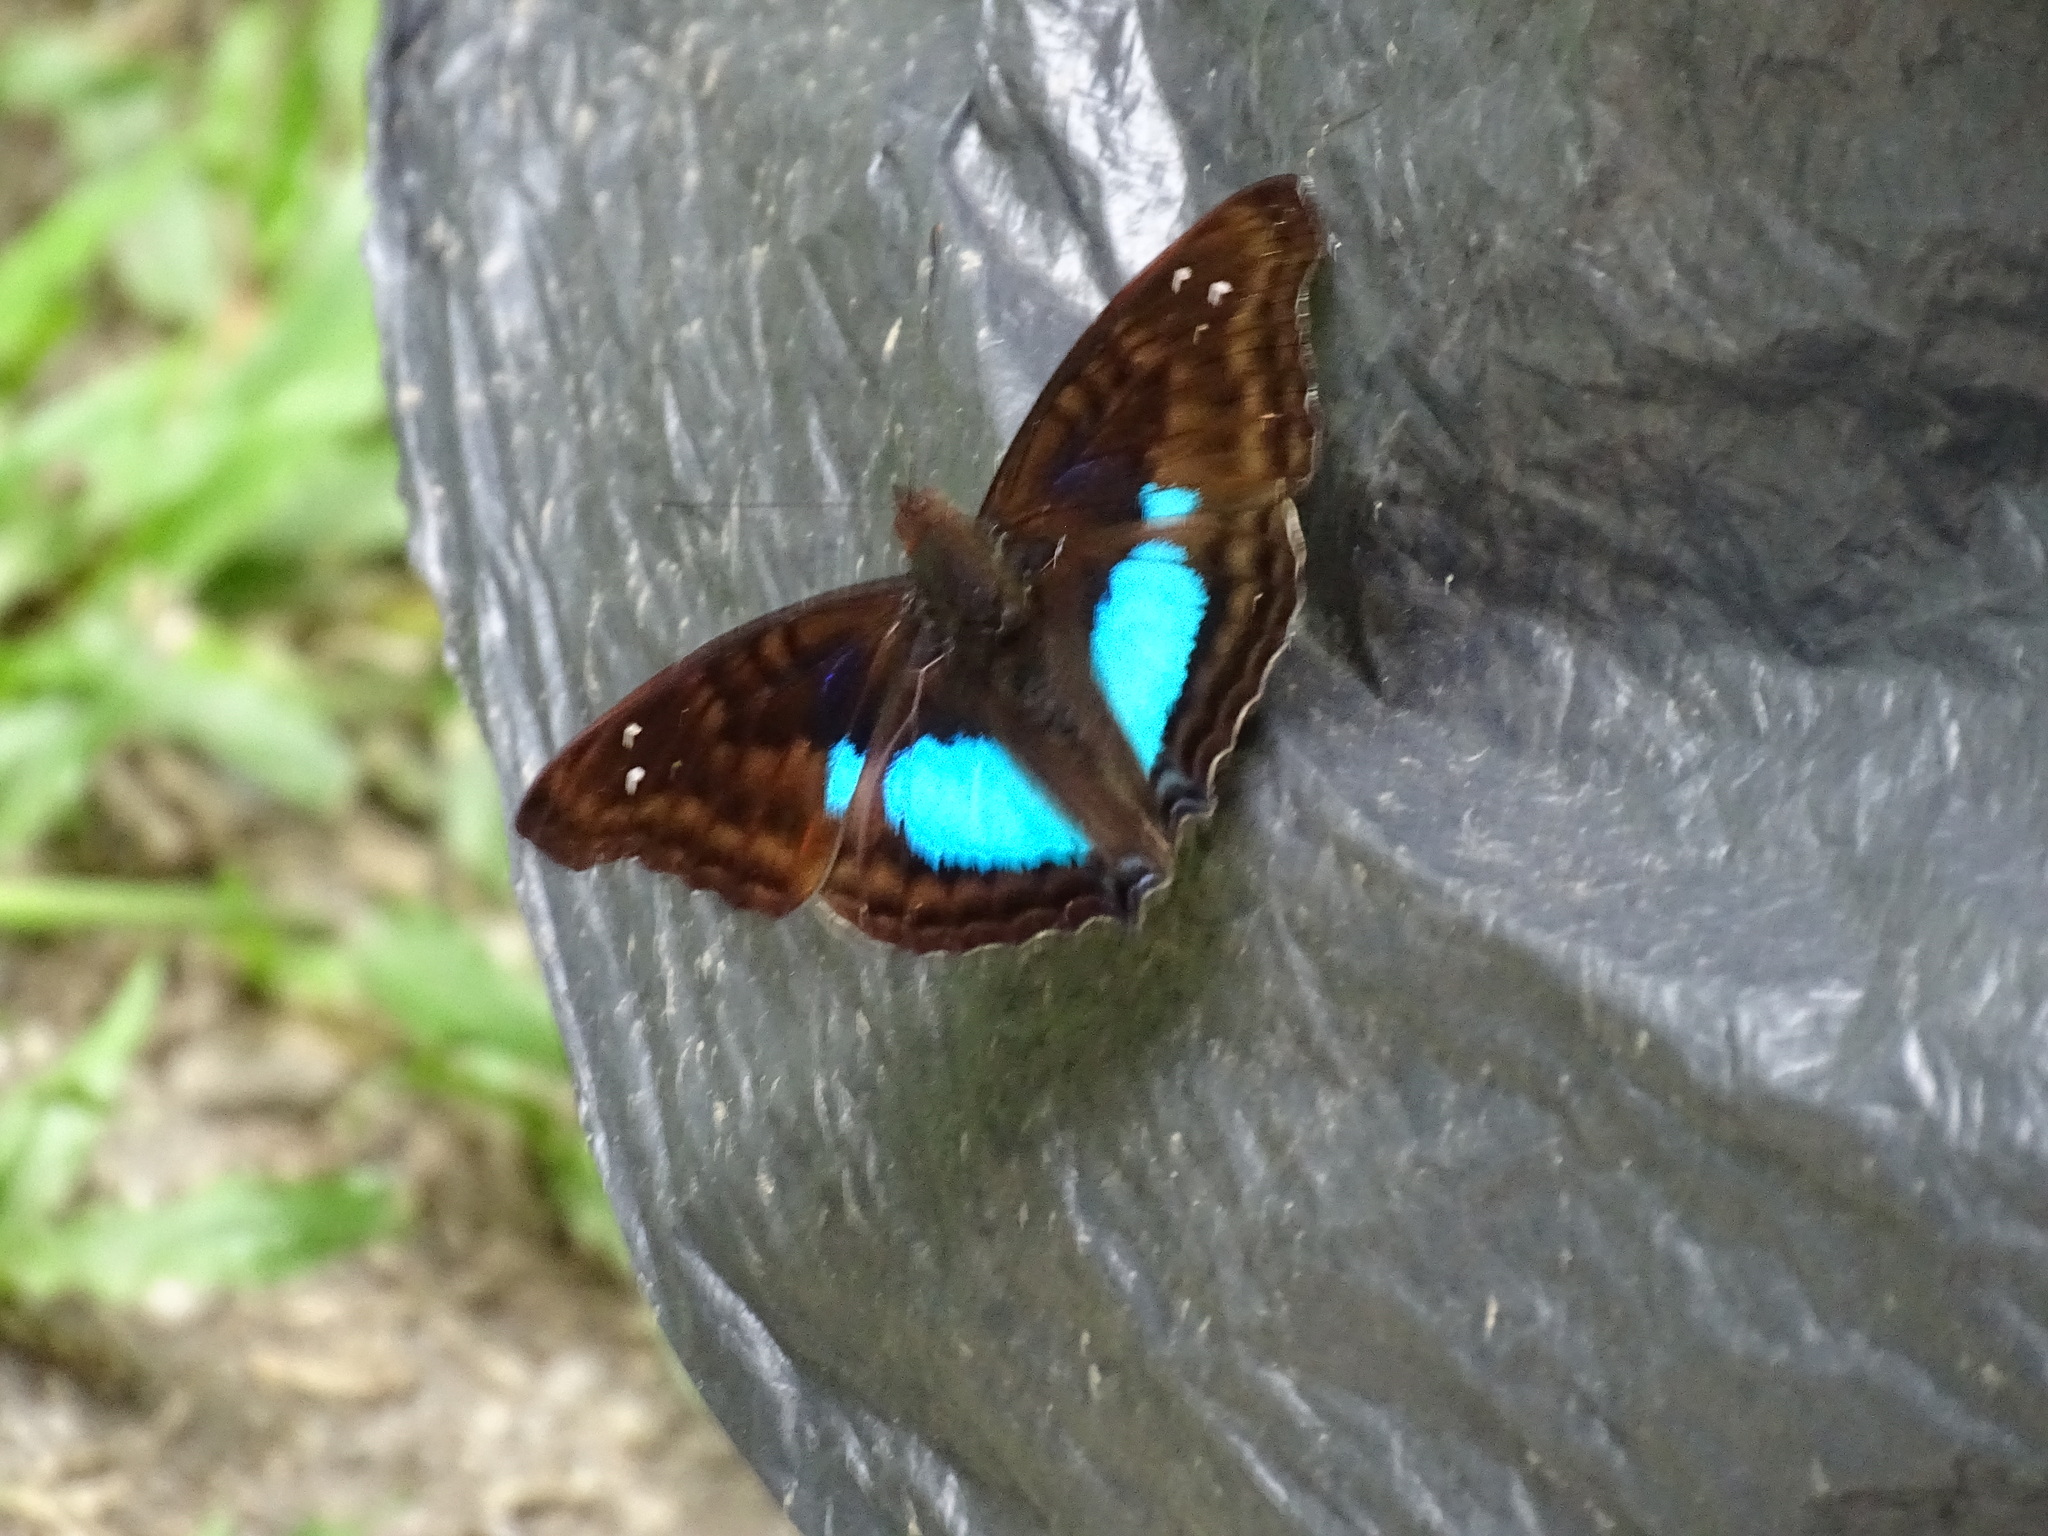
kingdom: Animalia
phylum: Arthropoda
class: Insecta
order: Lepidoptera
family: Nymphalidae
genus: Doxocopa
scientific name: Doxocopa cyane
